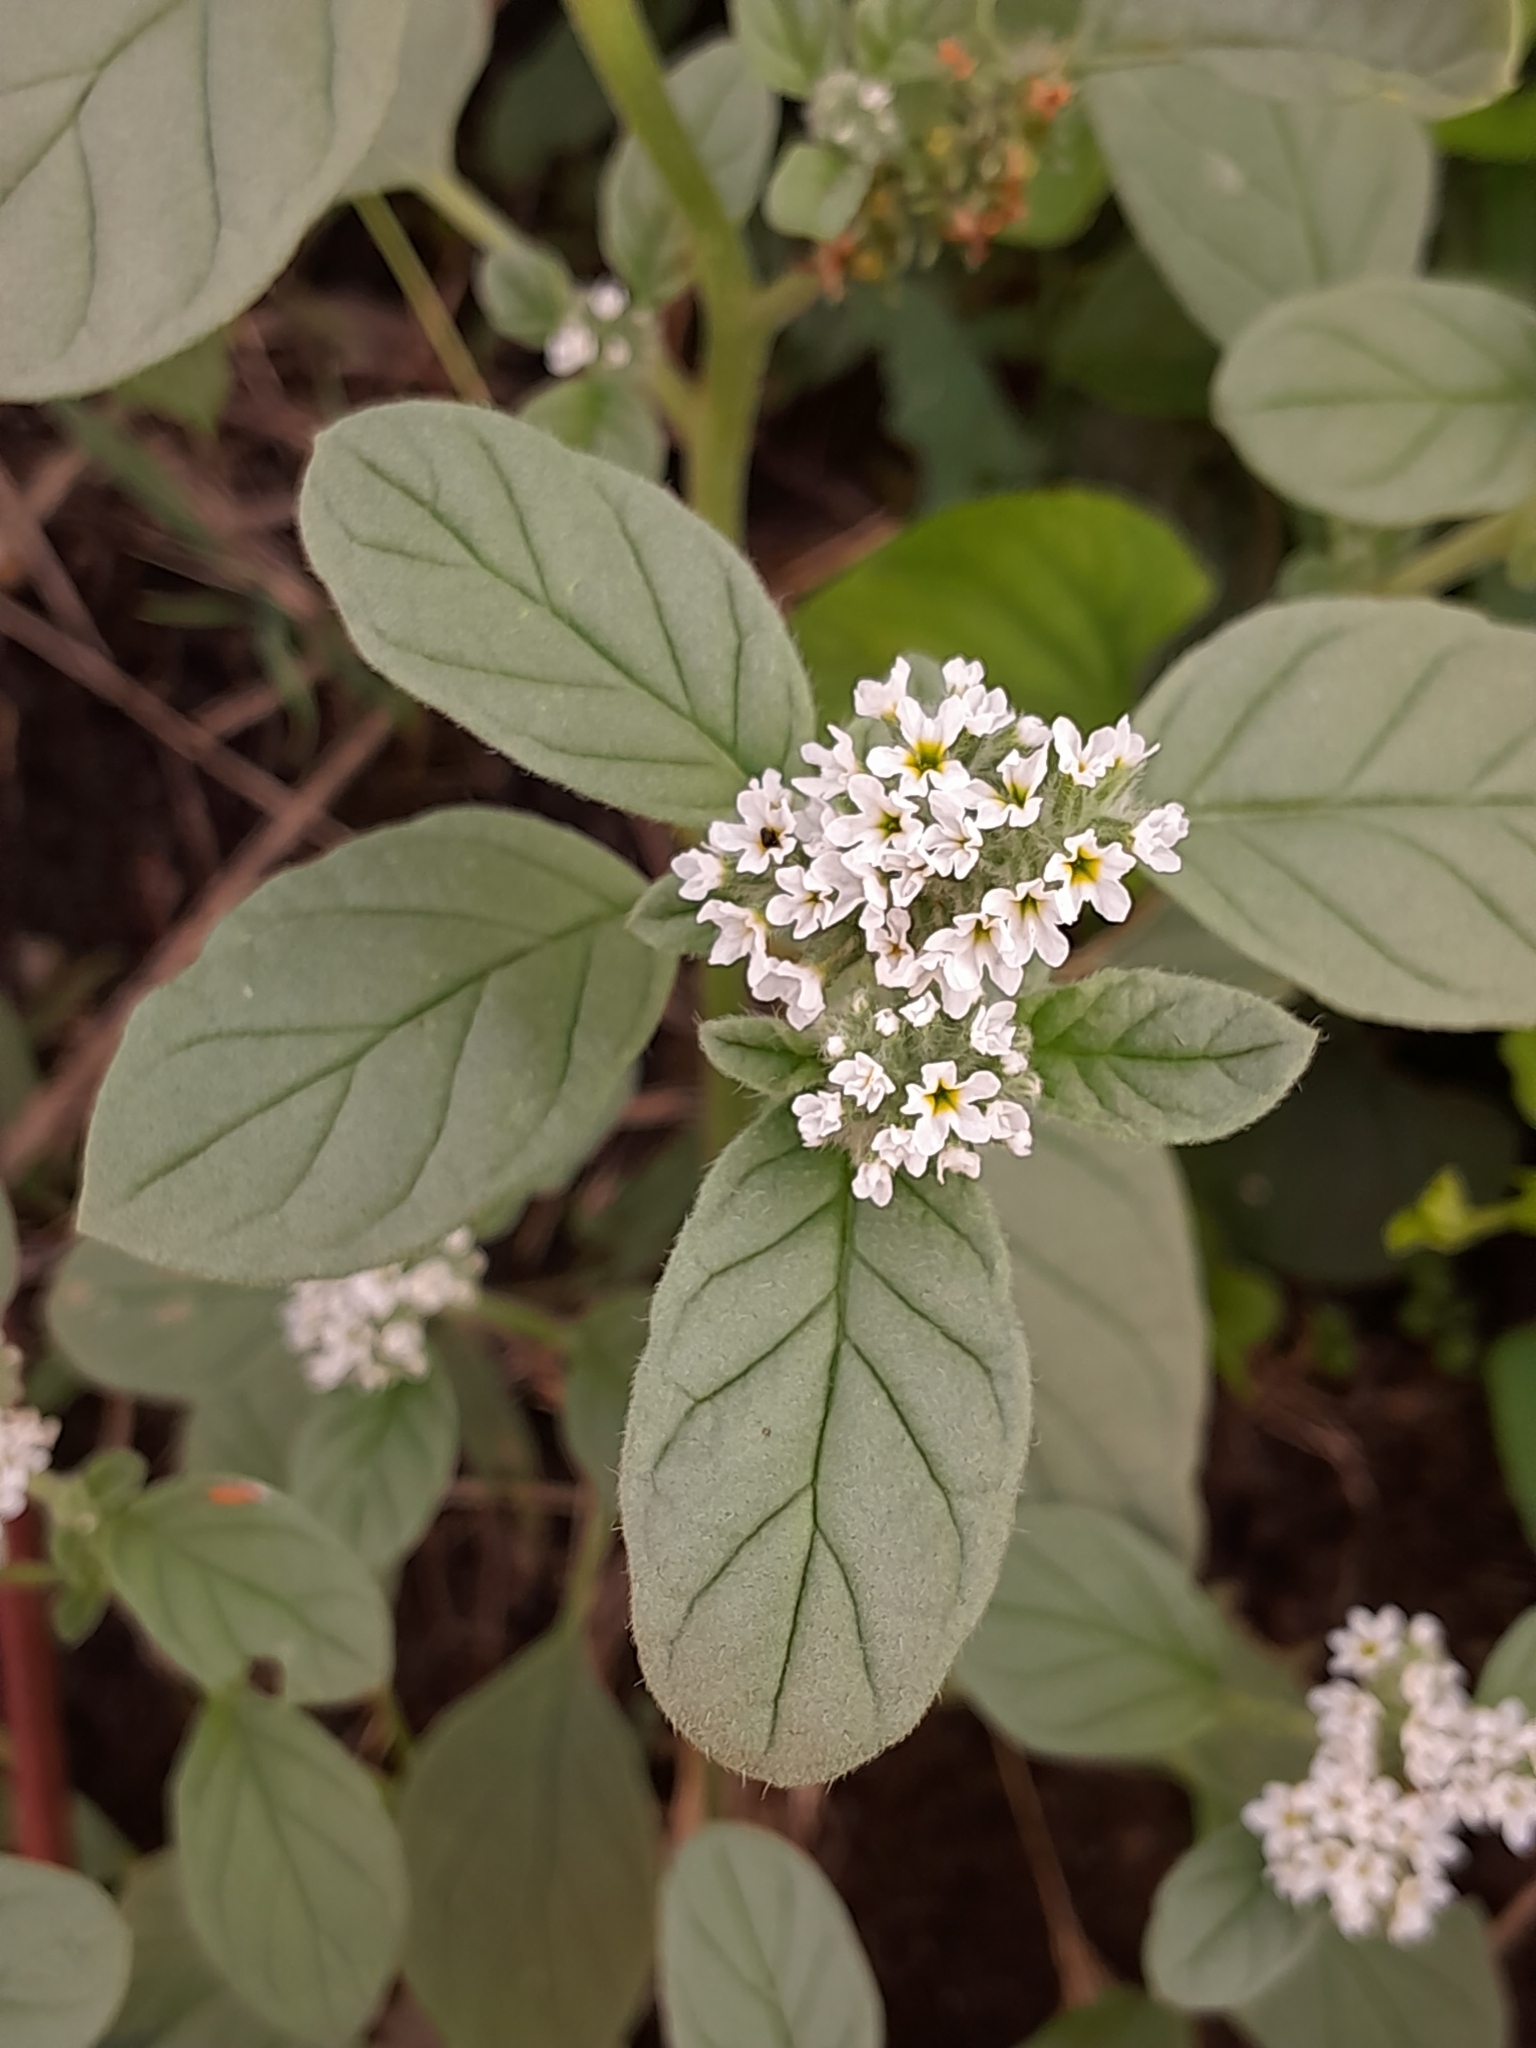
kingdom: Plantae
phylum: Tracheophyta
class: Magnoliopsida
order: Boraginales
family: Heliotropiaceae
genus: Heliotropium
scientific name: Heliotropium europaeum
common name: European heliotrope
